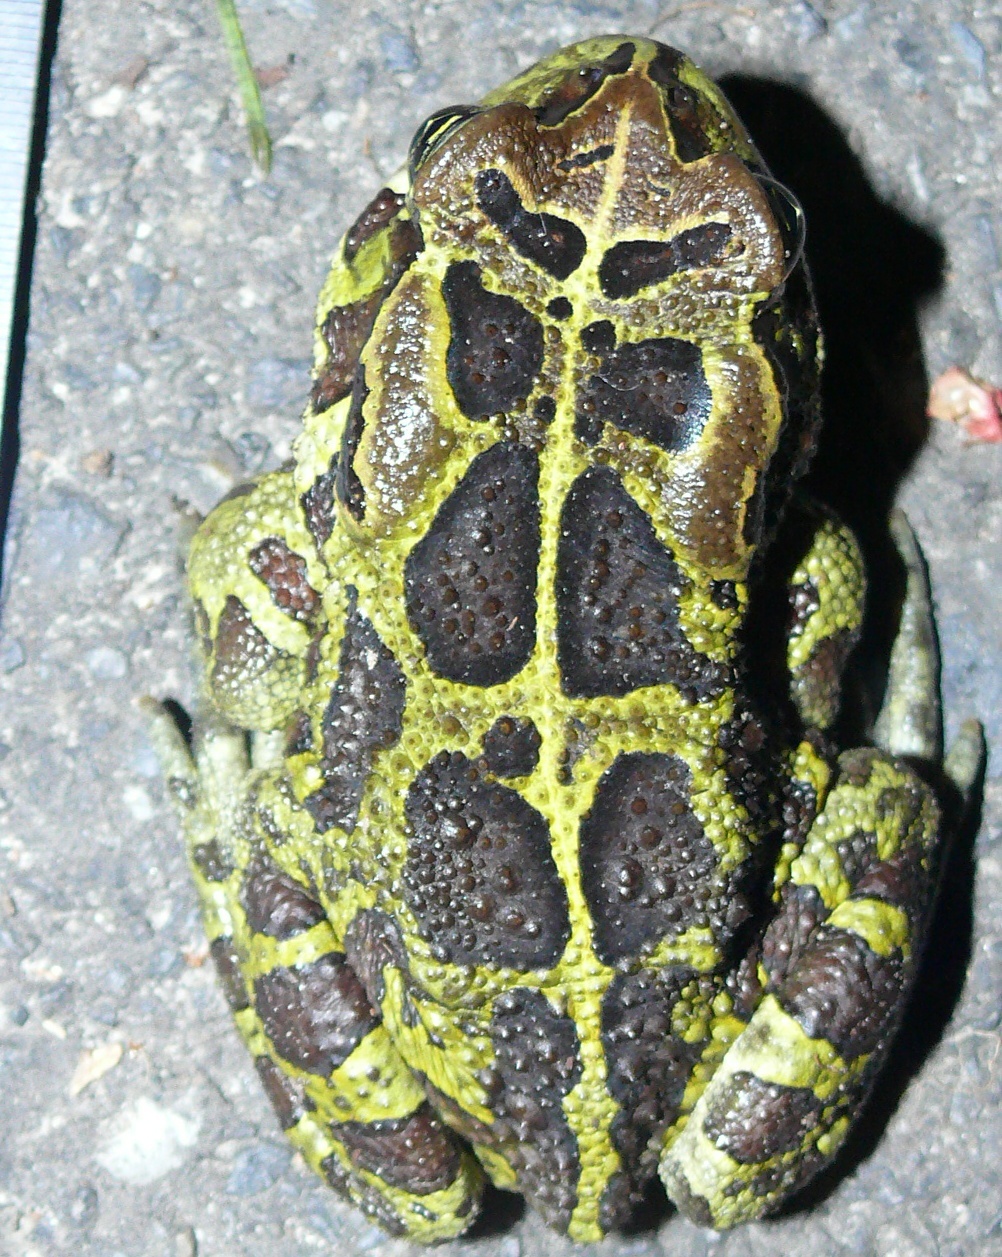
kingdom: Animalia
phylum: Chordata
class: Amphibia
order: Anura
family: Bufonidae
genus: Sclerophrys
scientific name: Sclerophrys pantherina
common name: Panther toad
